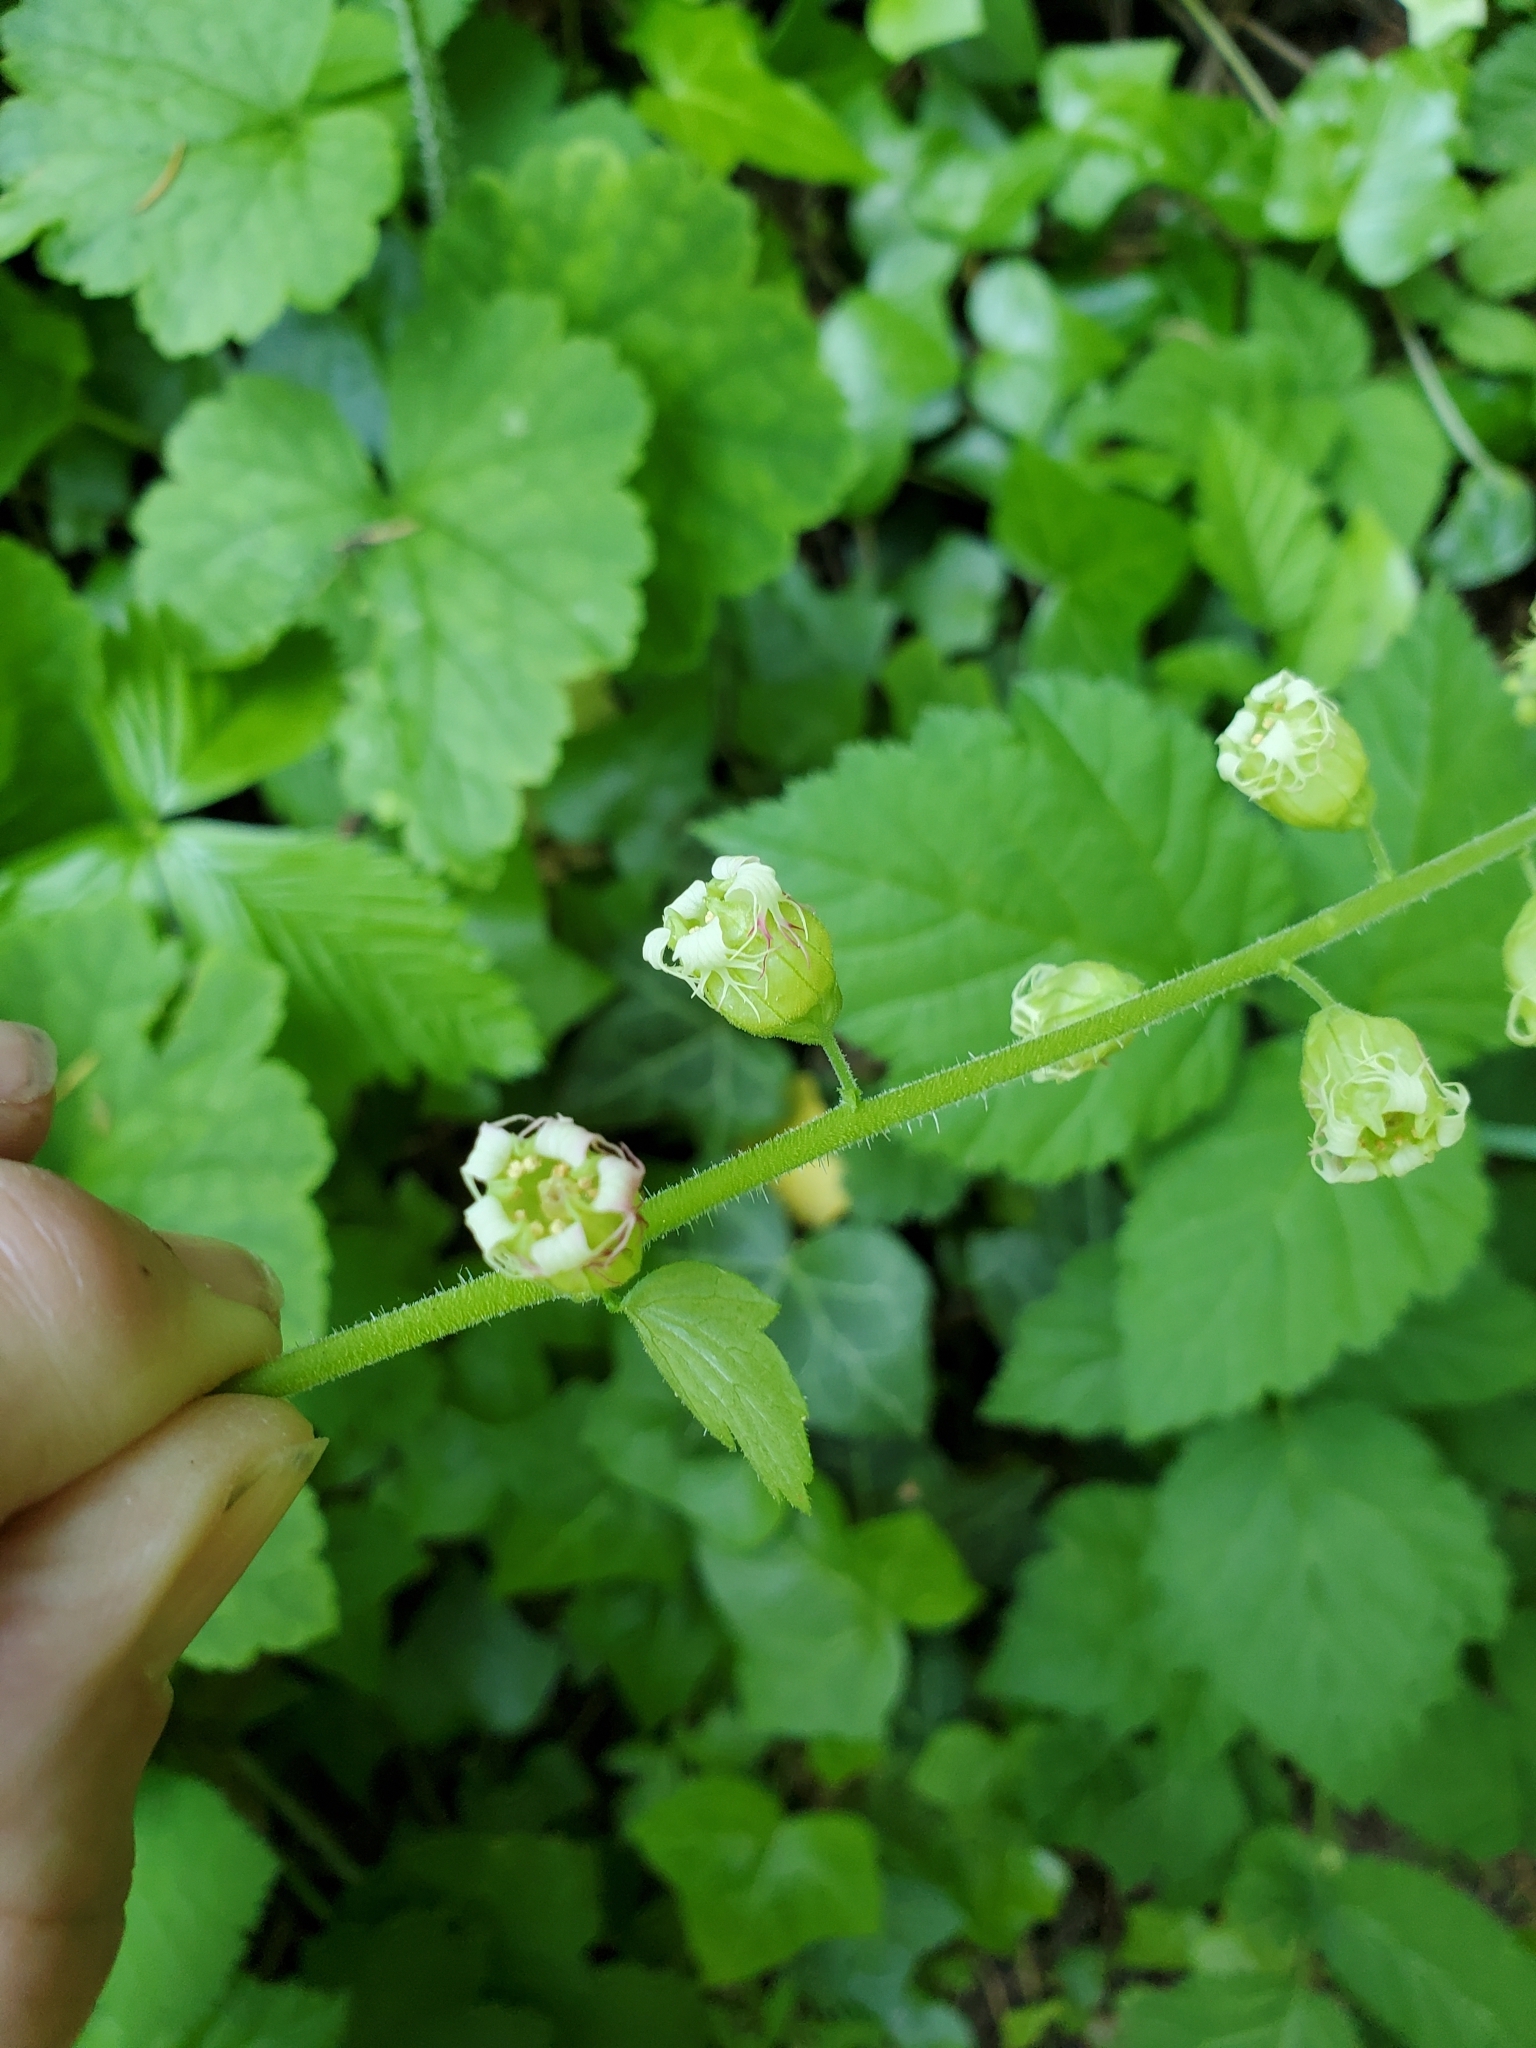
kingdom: Plantae
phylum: Tracheophyta
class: Magnoliopsida
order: Saxifragales
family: Saxifragaceae
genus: Tellima
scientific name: Tellima grandiflora
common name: Fringecups
